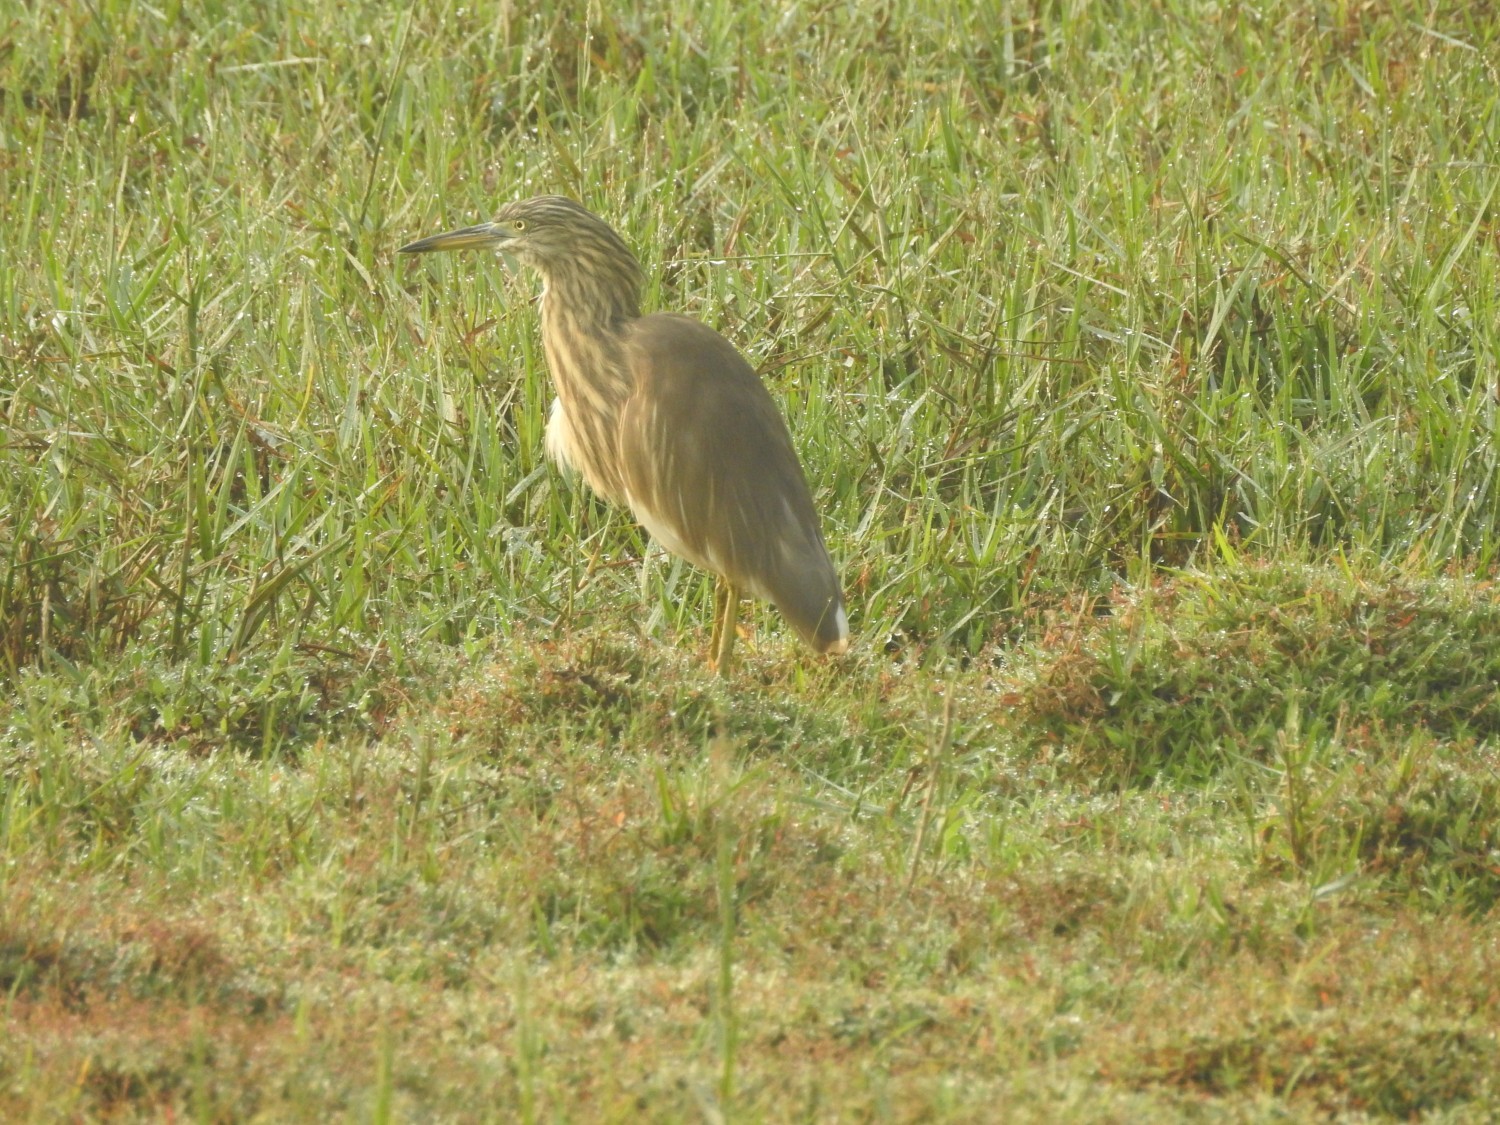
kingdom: Animalia
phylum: Chordata
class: Aves
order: Pelecaniformes
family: Ardeidae
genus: Ardeola
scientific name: Ardeola grayii
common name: Indian pond heron
